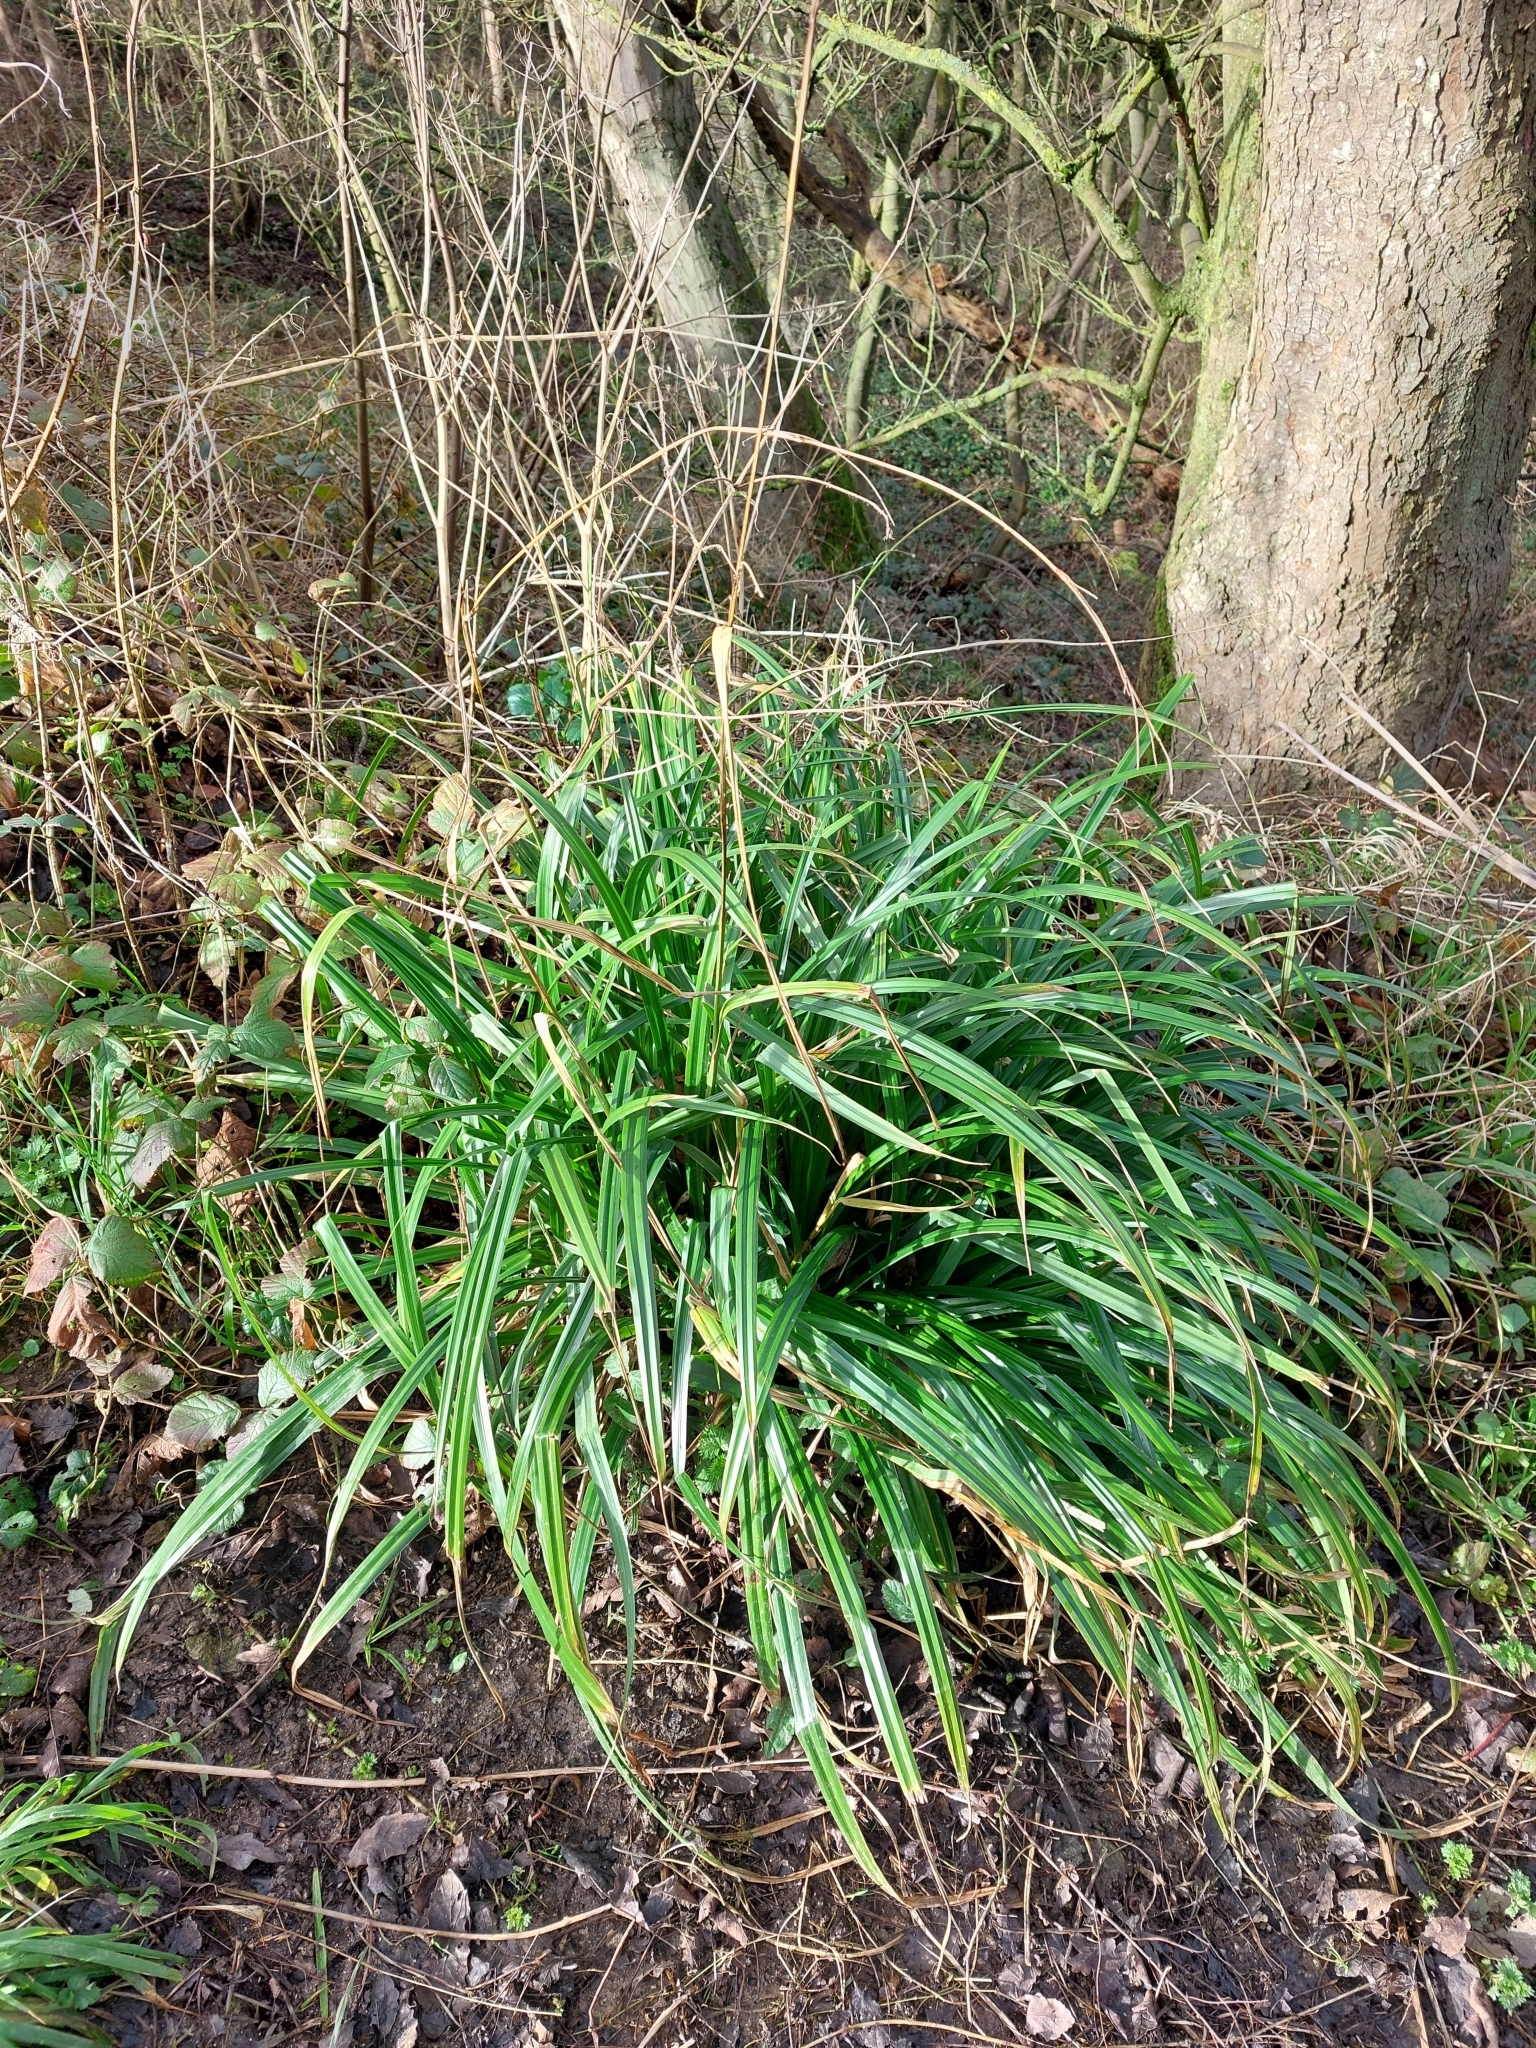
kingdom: Plantae
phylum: Tracheophyta
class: Liliopsida
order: Poales
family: Cyperaceae
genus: Carex
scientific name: Carex pendula
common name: Pendulous sedge
